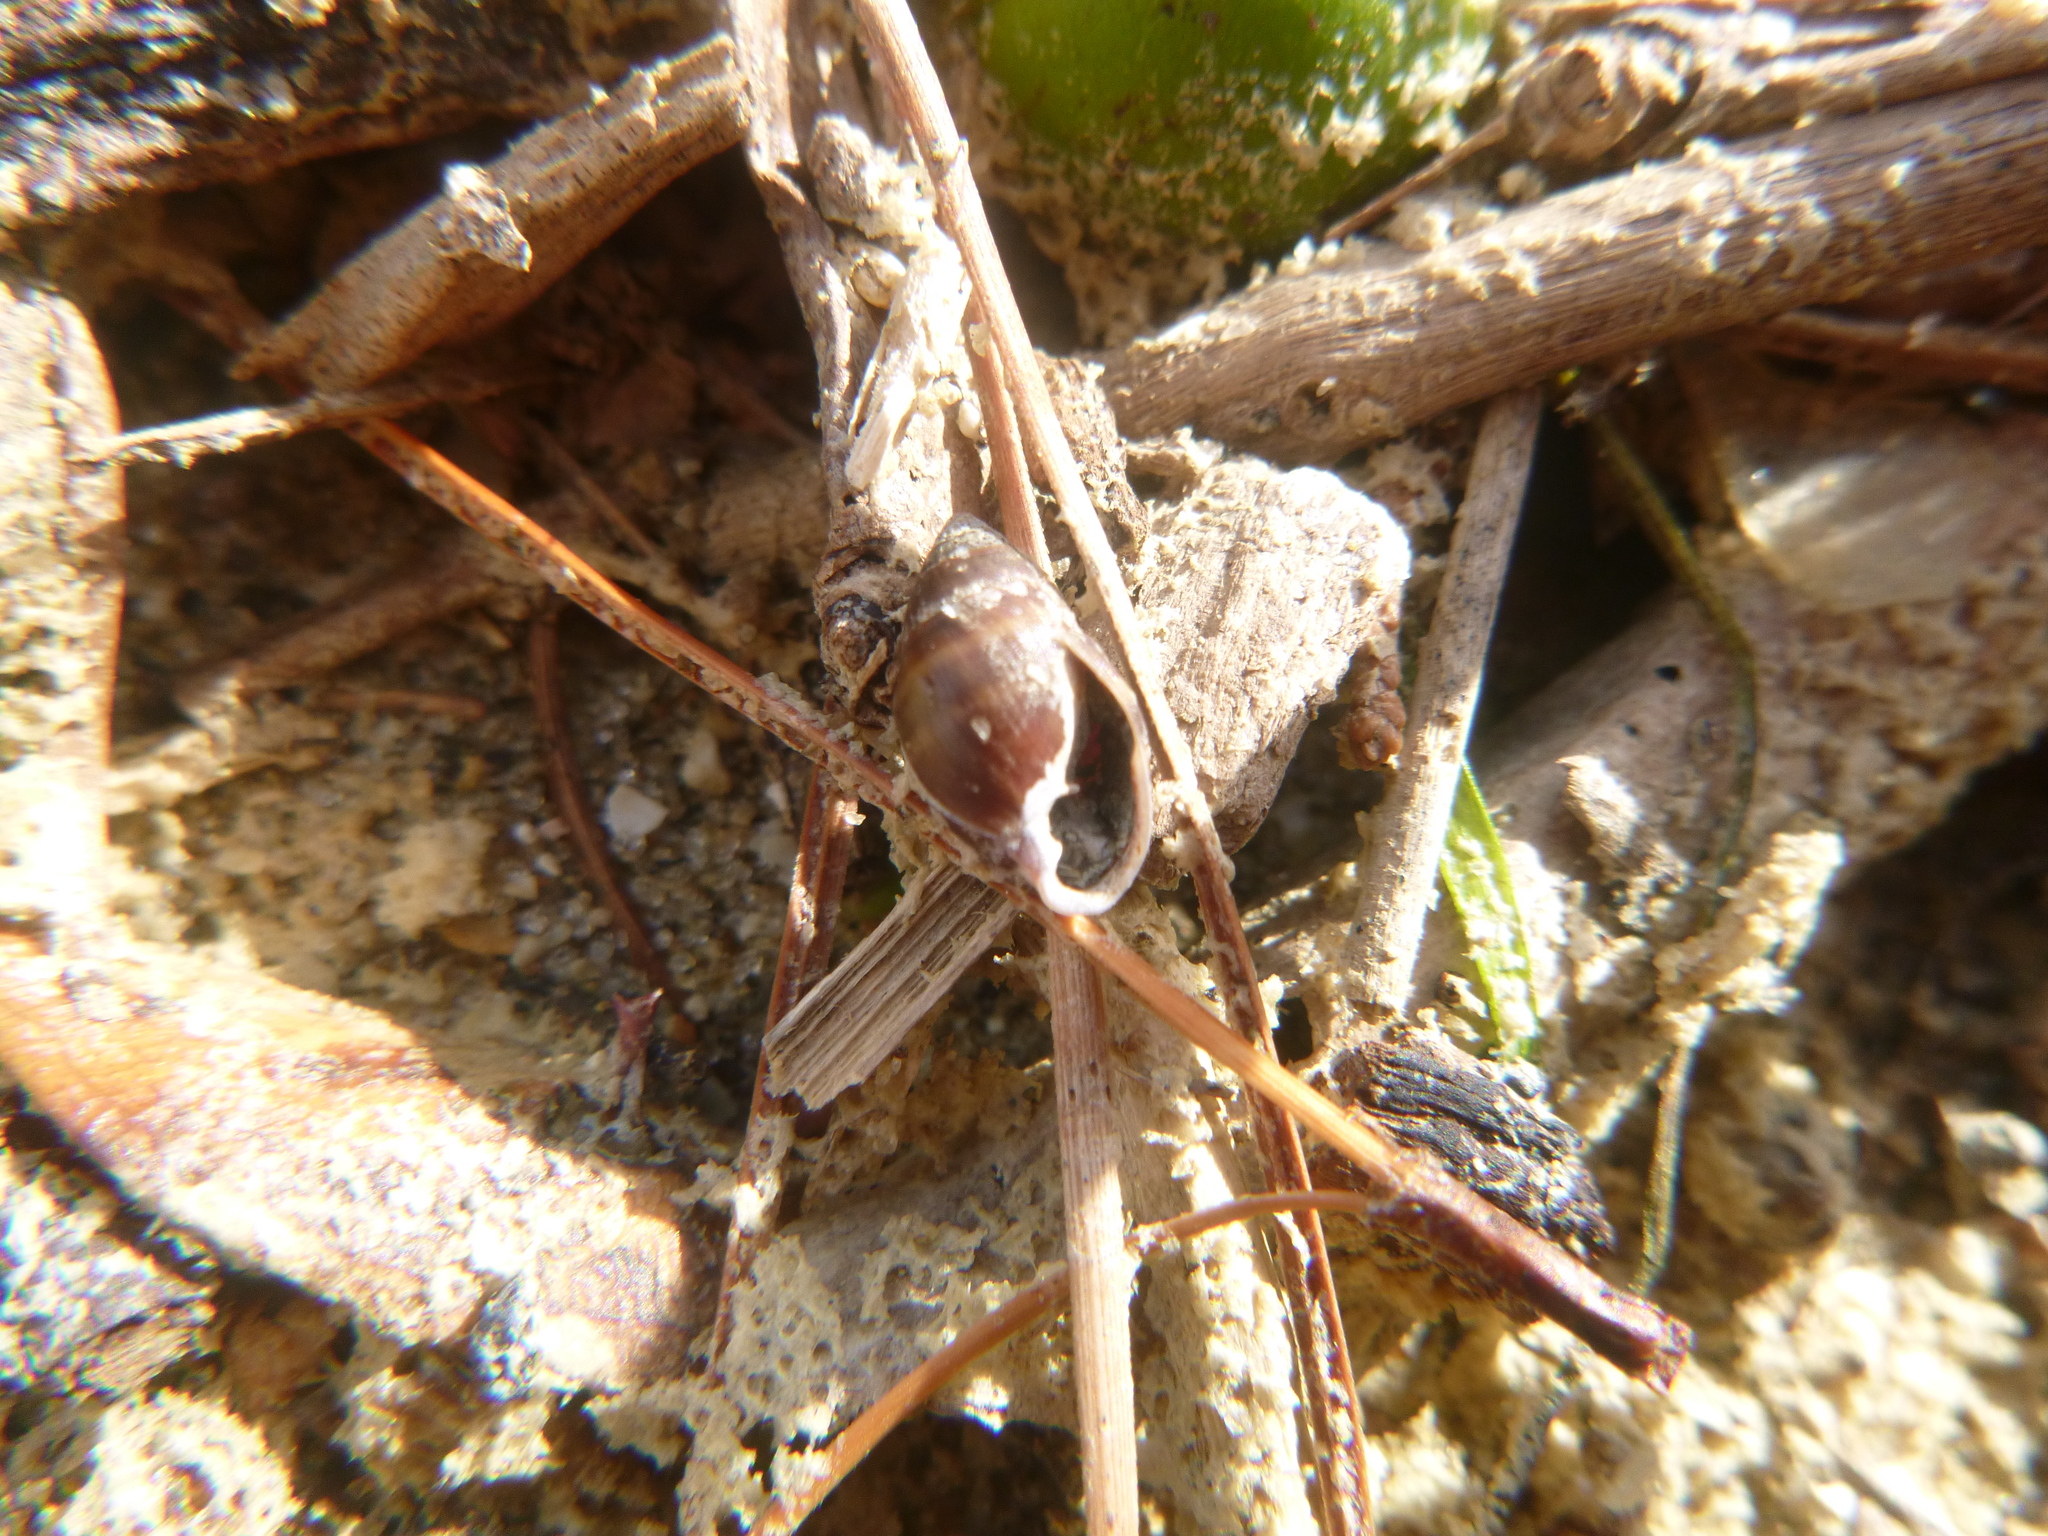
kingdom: Animalia
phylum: Mollusca
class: Gastropoda
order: Ellobiida
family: Ellobiidae
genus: Pleuroloba
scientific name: Pleuroloba costellaris
